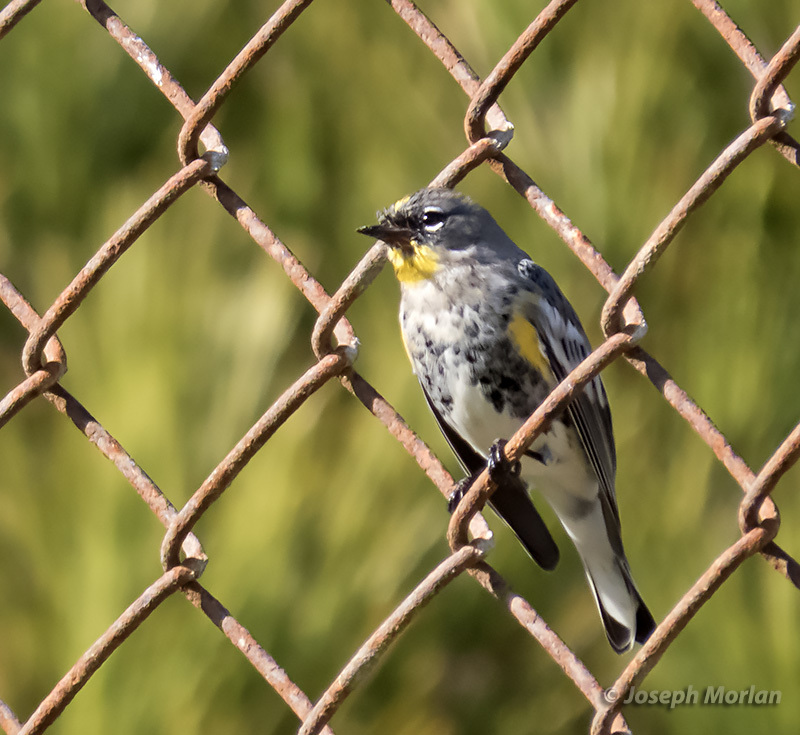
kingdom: Animalia
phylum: Chordata
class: Aves
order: Passeriformes
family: Parulidae
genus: Setophaga
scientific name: Setophaga auduboni
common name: Audubon's warbler
